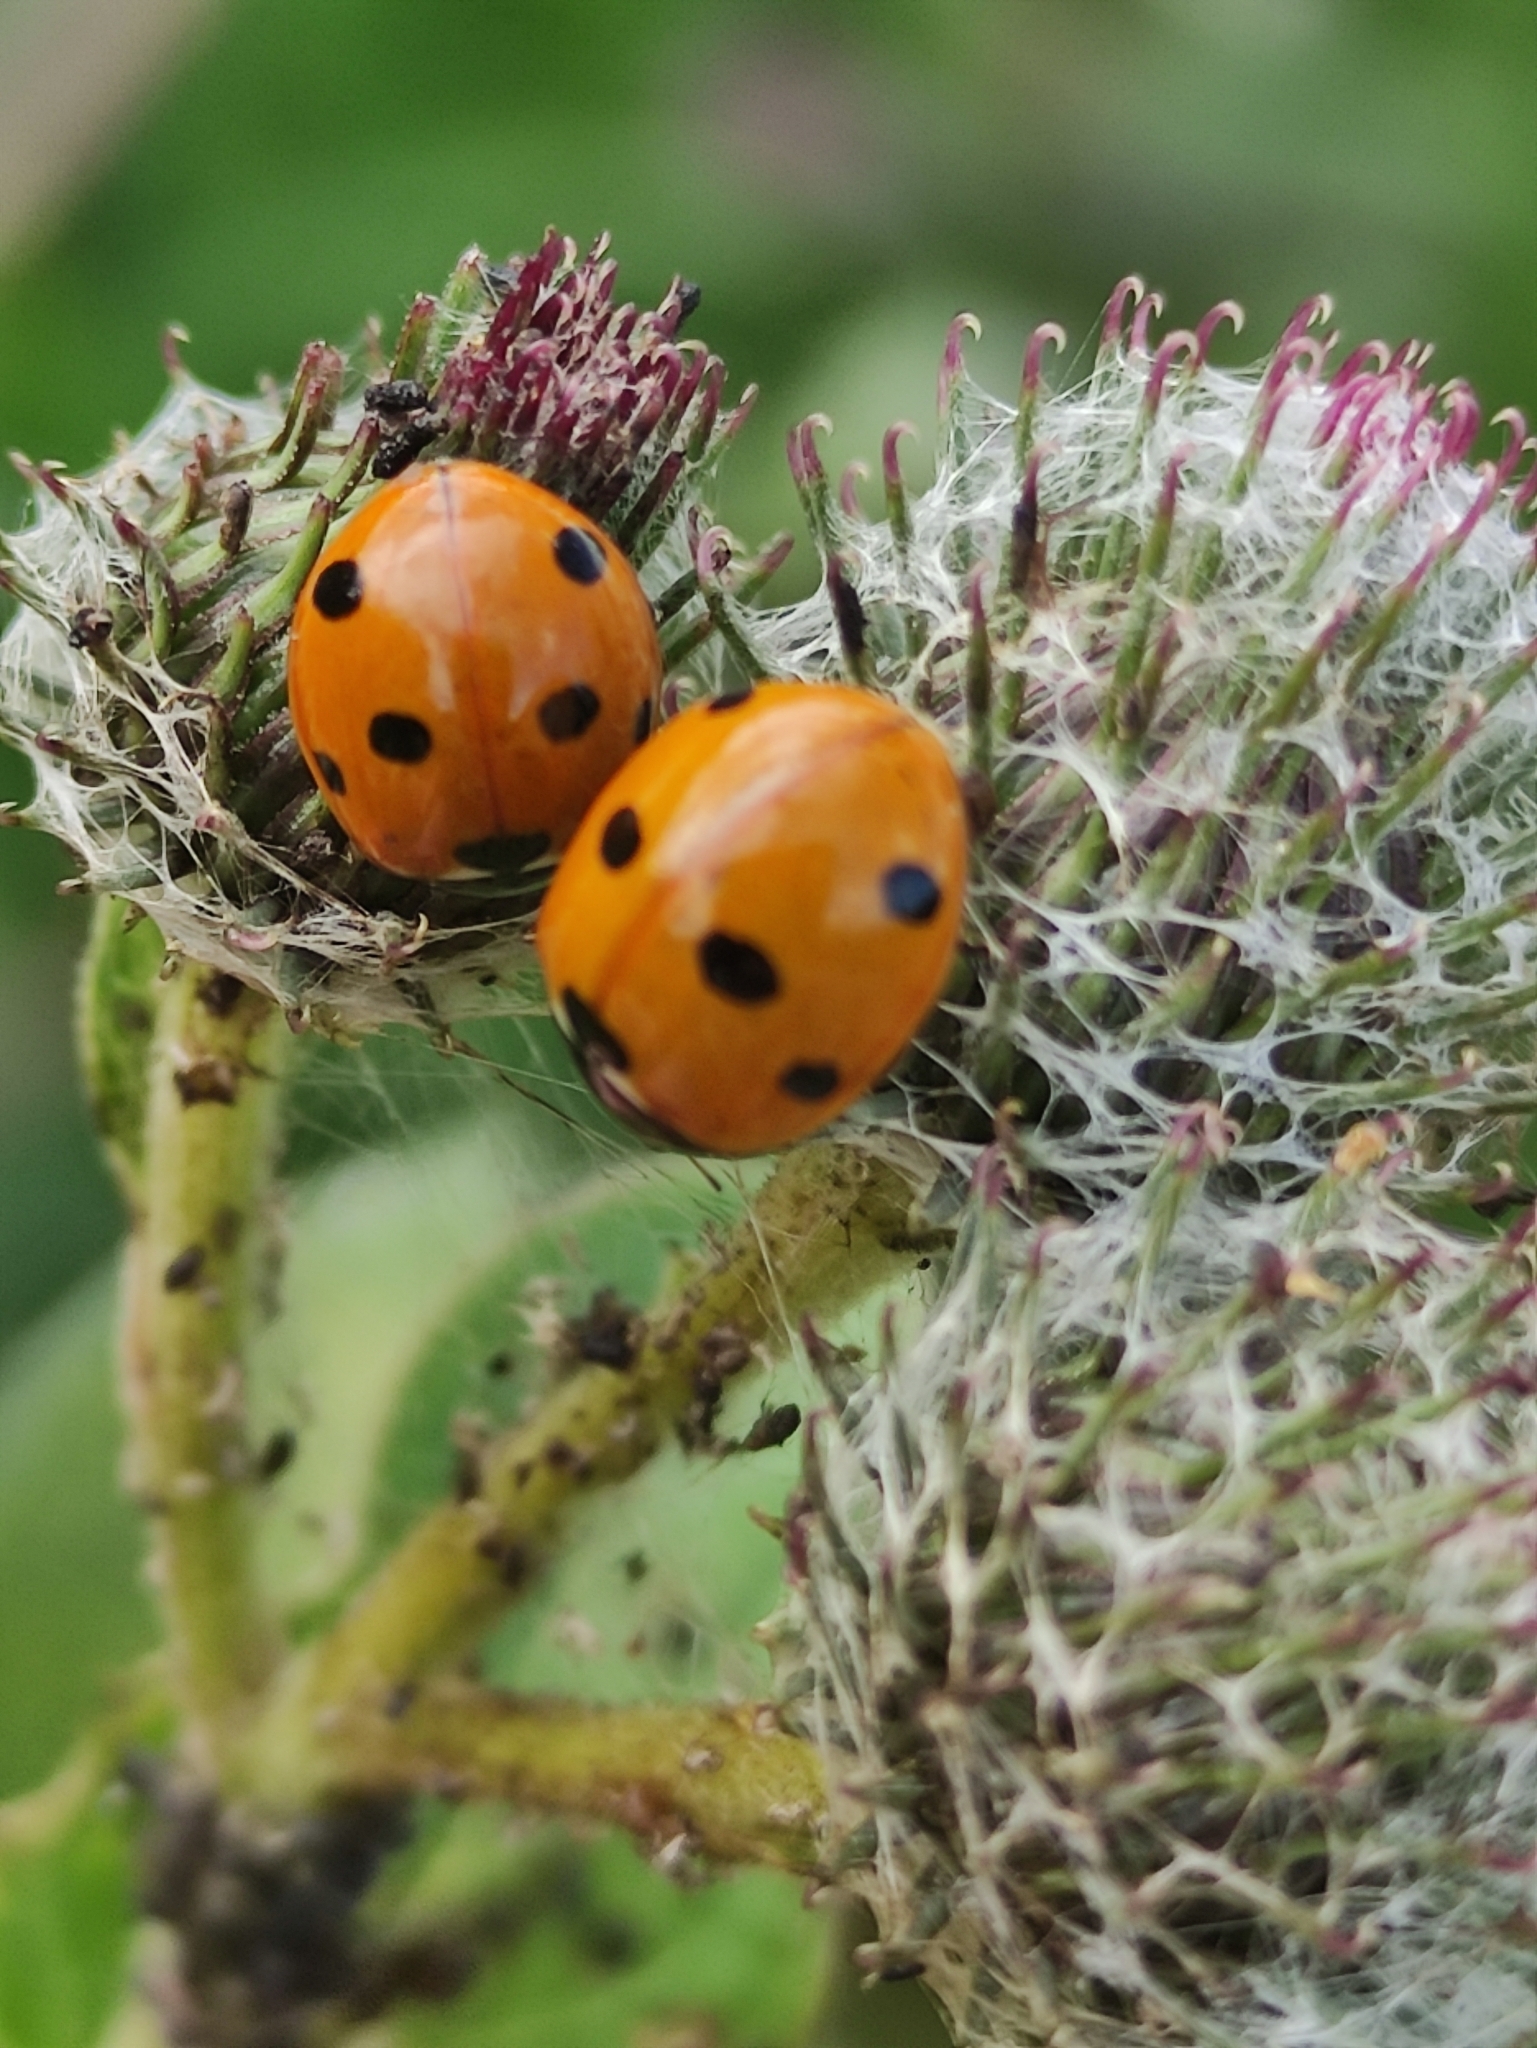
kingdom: Animalia
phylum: Arthropoda
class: Insecta
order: Coleoptera
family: Coccinellidae
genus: Coccinella
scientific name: Coccinella septempunctata
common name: Sevenspotted lady beetle
